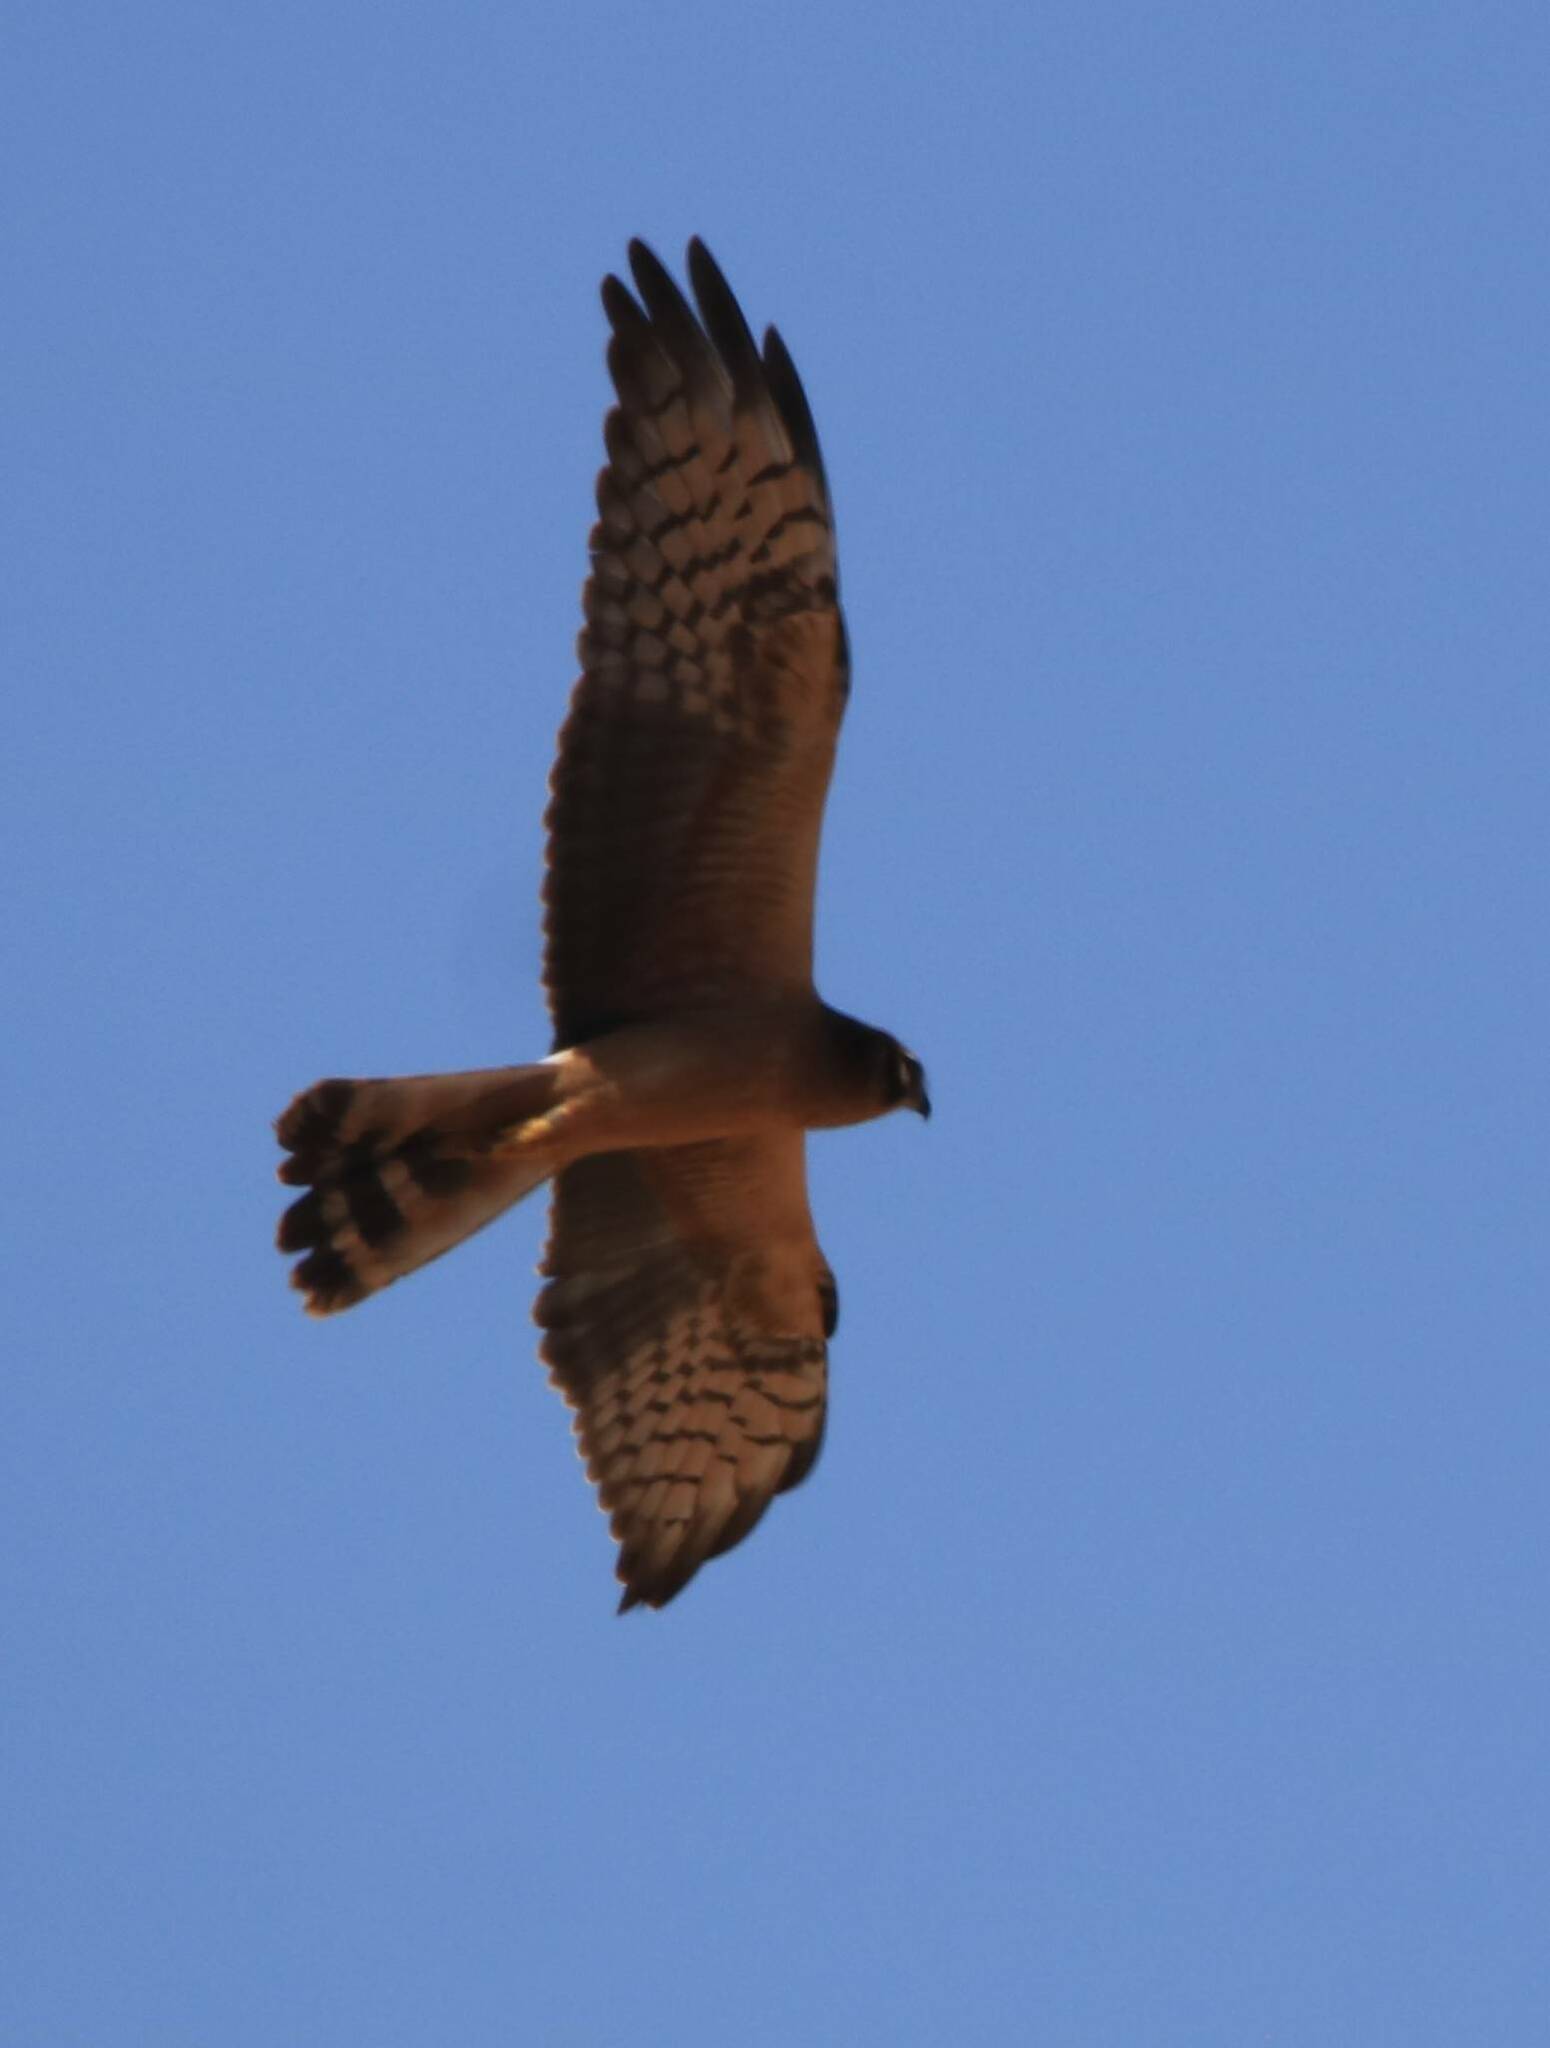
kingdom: Animalia
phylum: Chordata
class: Aves
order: Accipitriformes
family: Accipitridae
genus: Circus
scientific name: Circus pygargus
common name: Montagu's harrier
